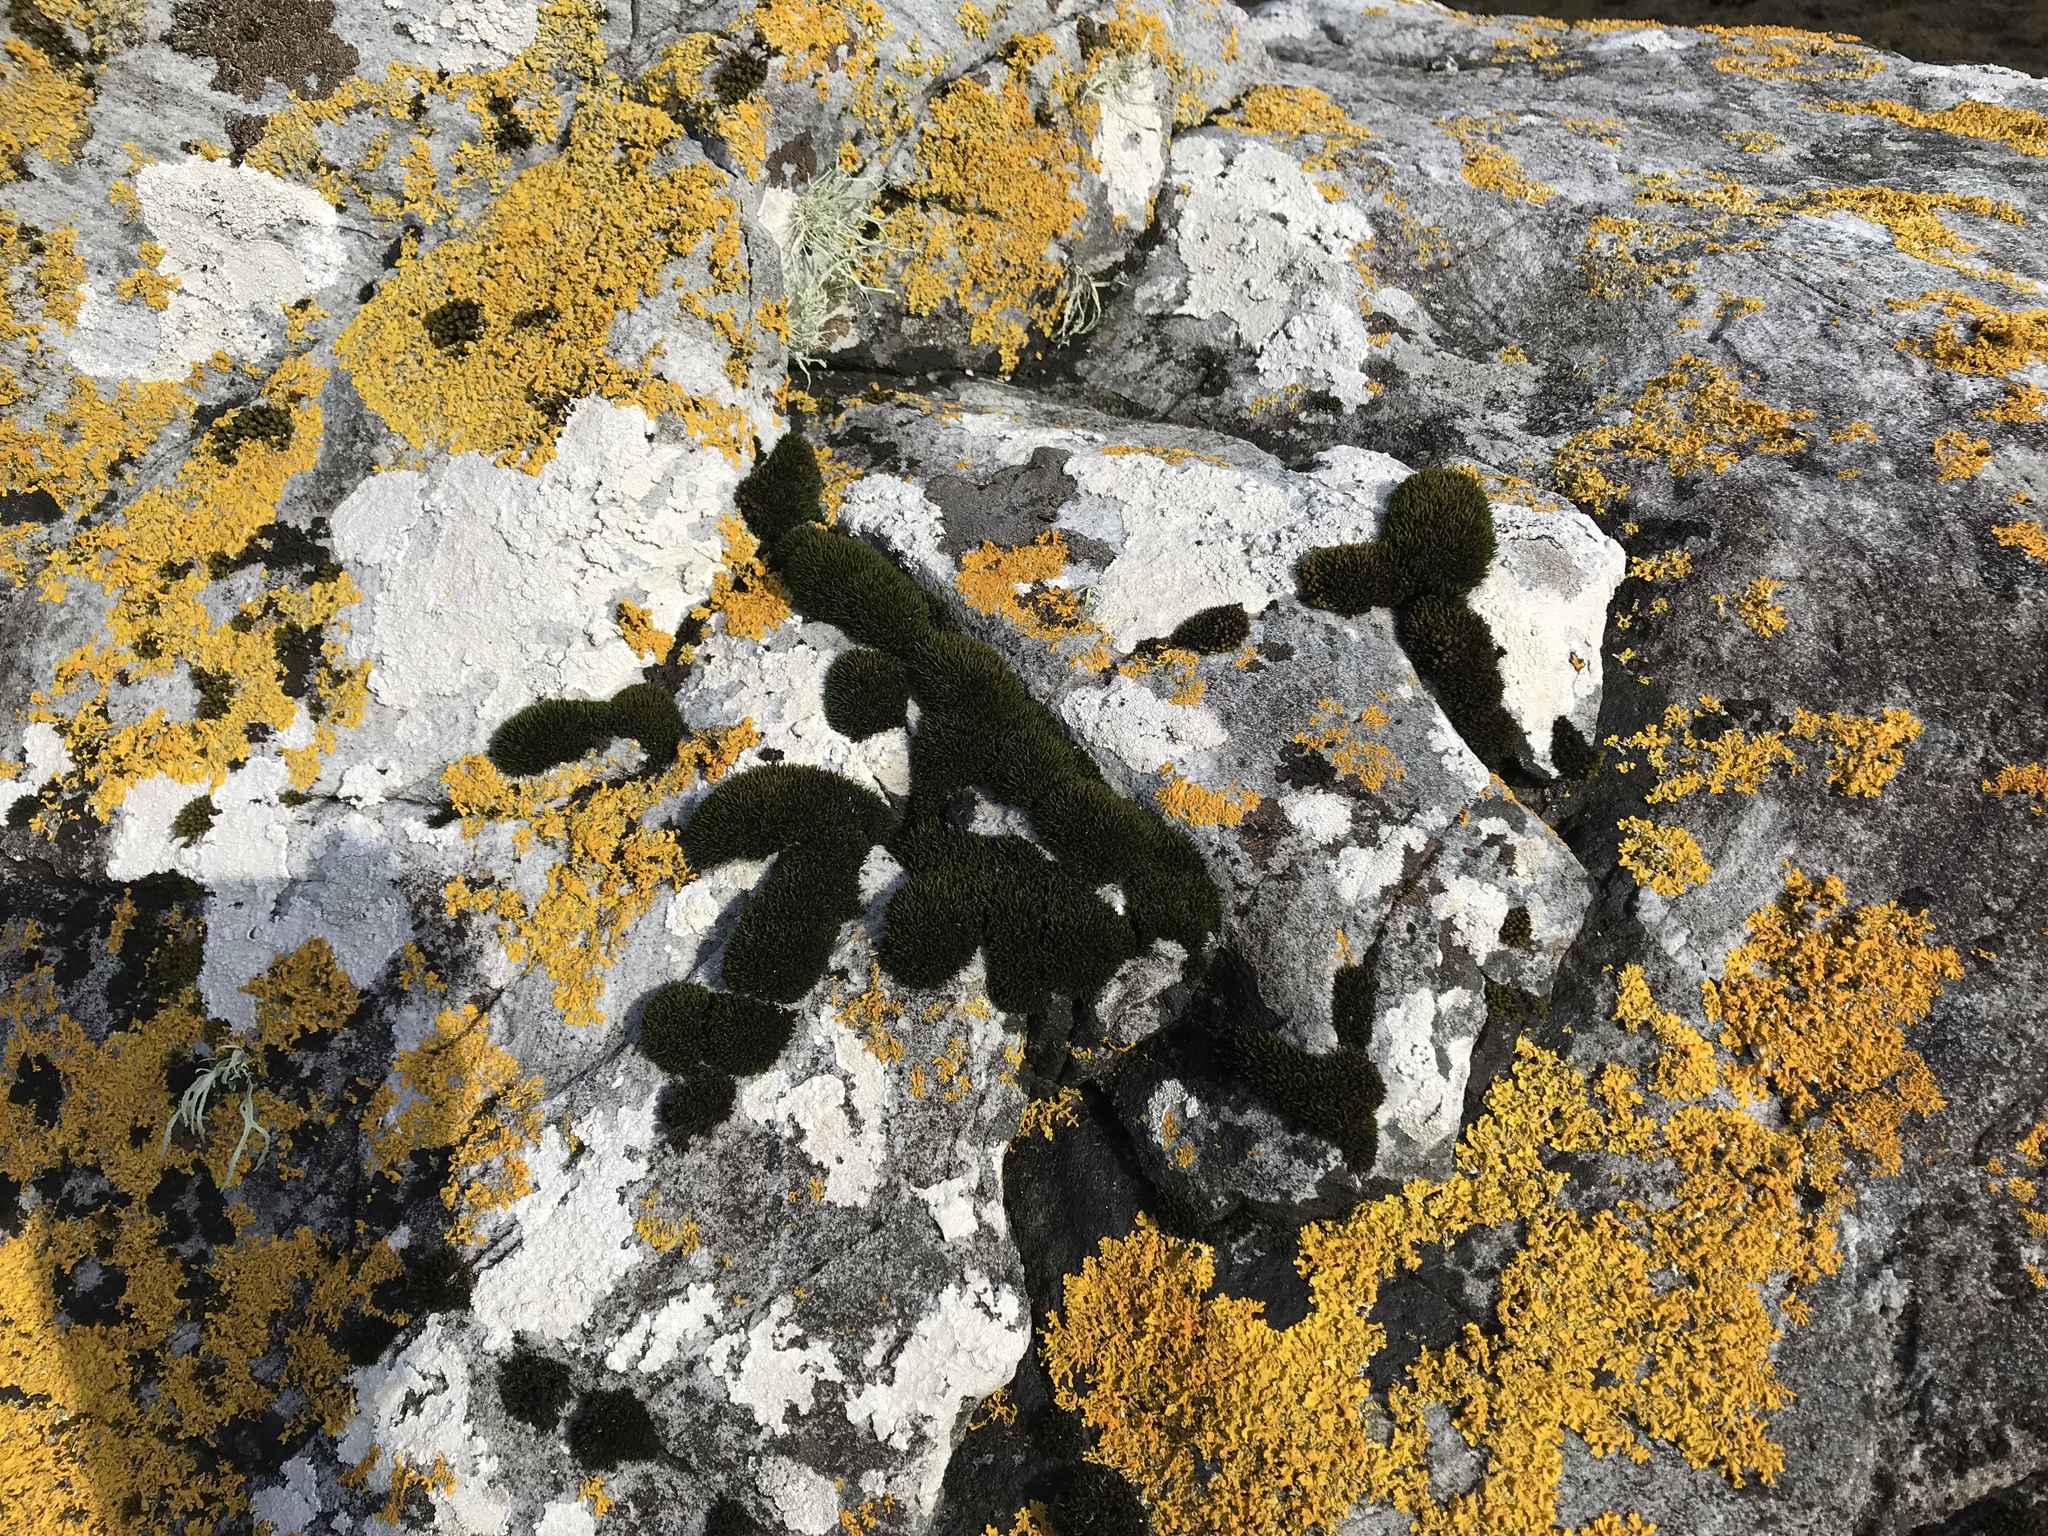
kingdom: Plantae
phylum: Bryophyta
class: Bryopsida
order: Grimmiales
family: Grimmiaceae
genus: Schistidium
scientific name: Schistidium maritimum
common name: Seaside bloom moss
